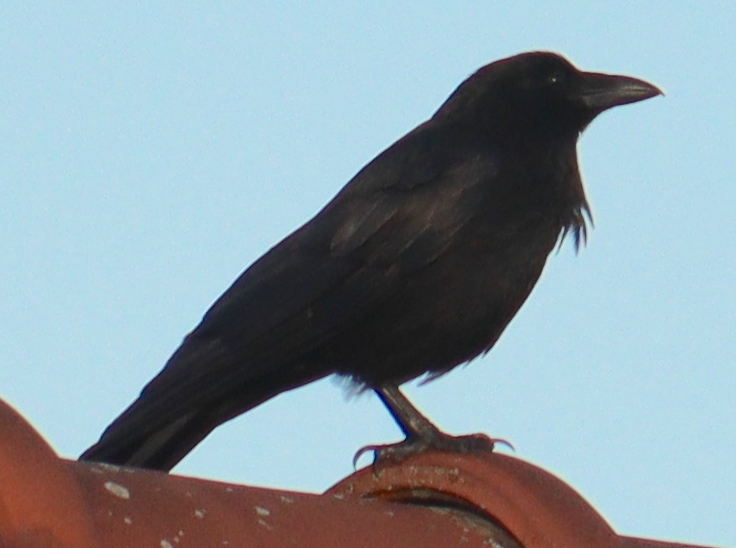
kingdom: Animalia
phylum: Chordata
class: Aves
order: Passeriformes
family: Corvidae
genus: Corvus
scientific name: Corvus corone
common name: Carrion crow
